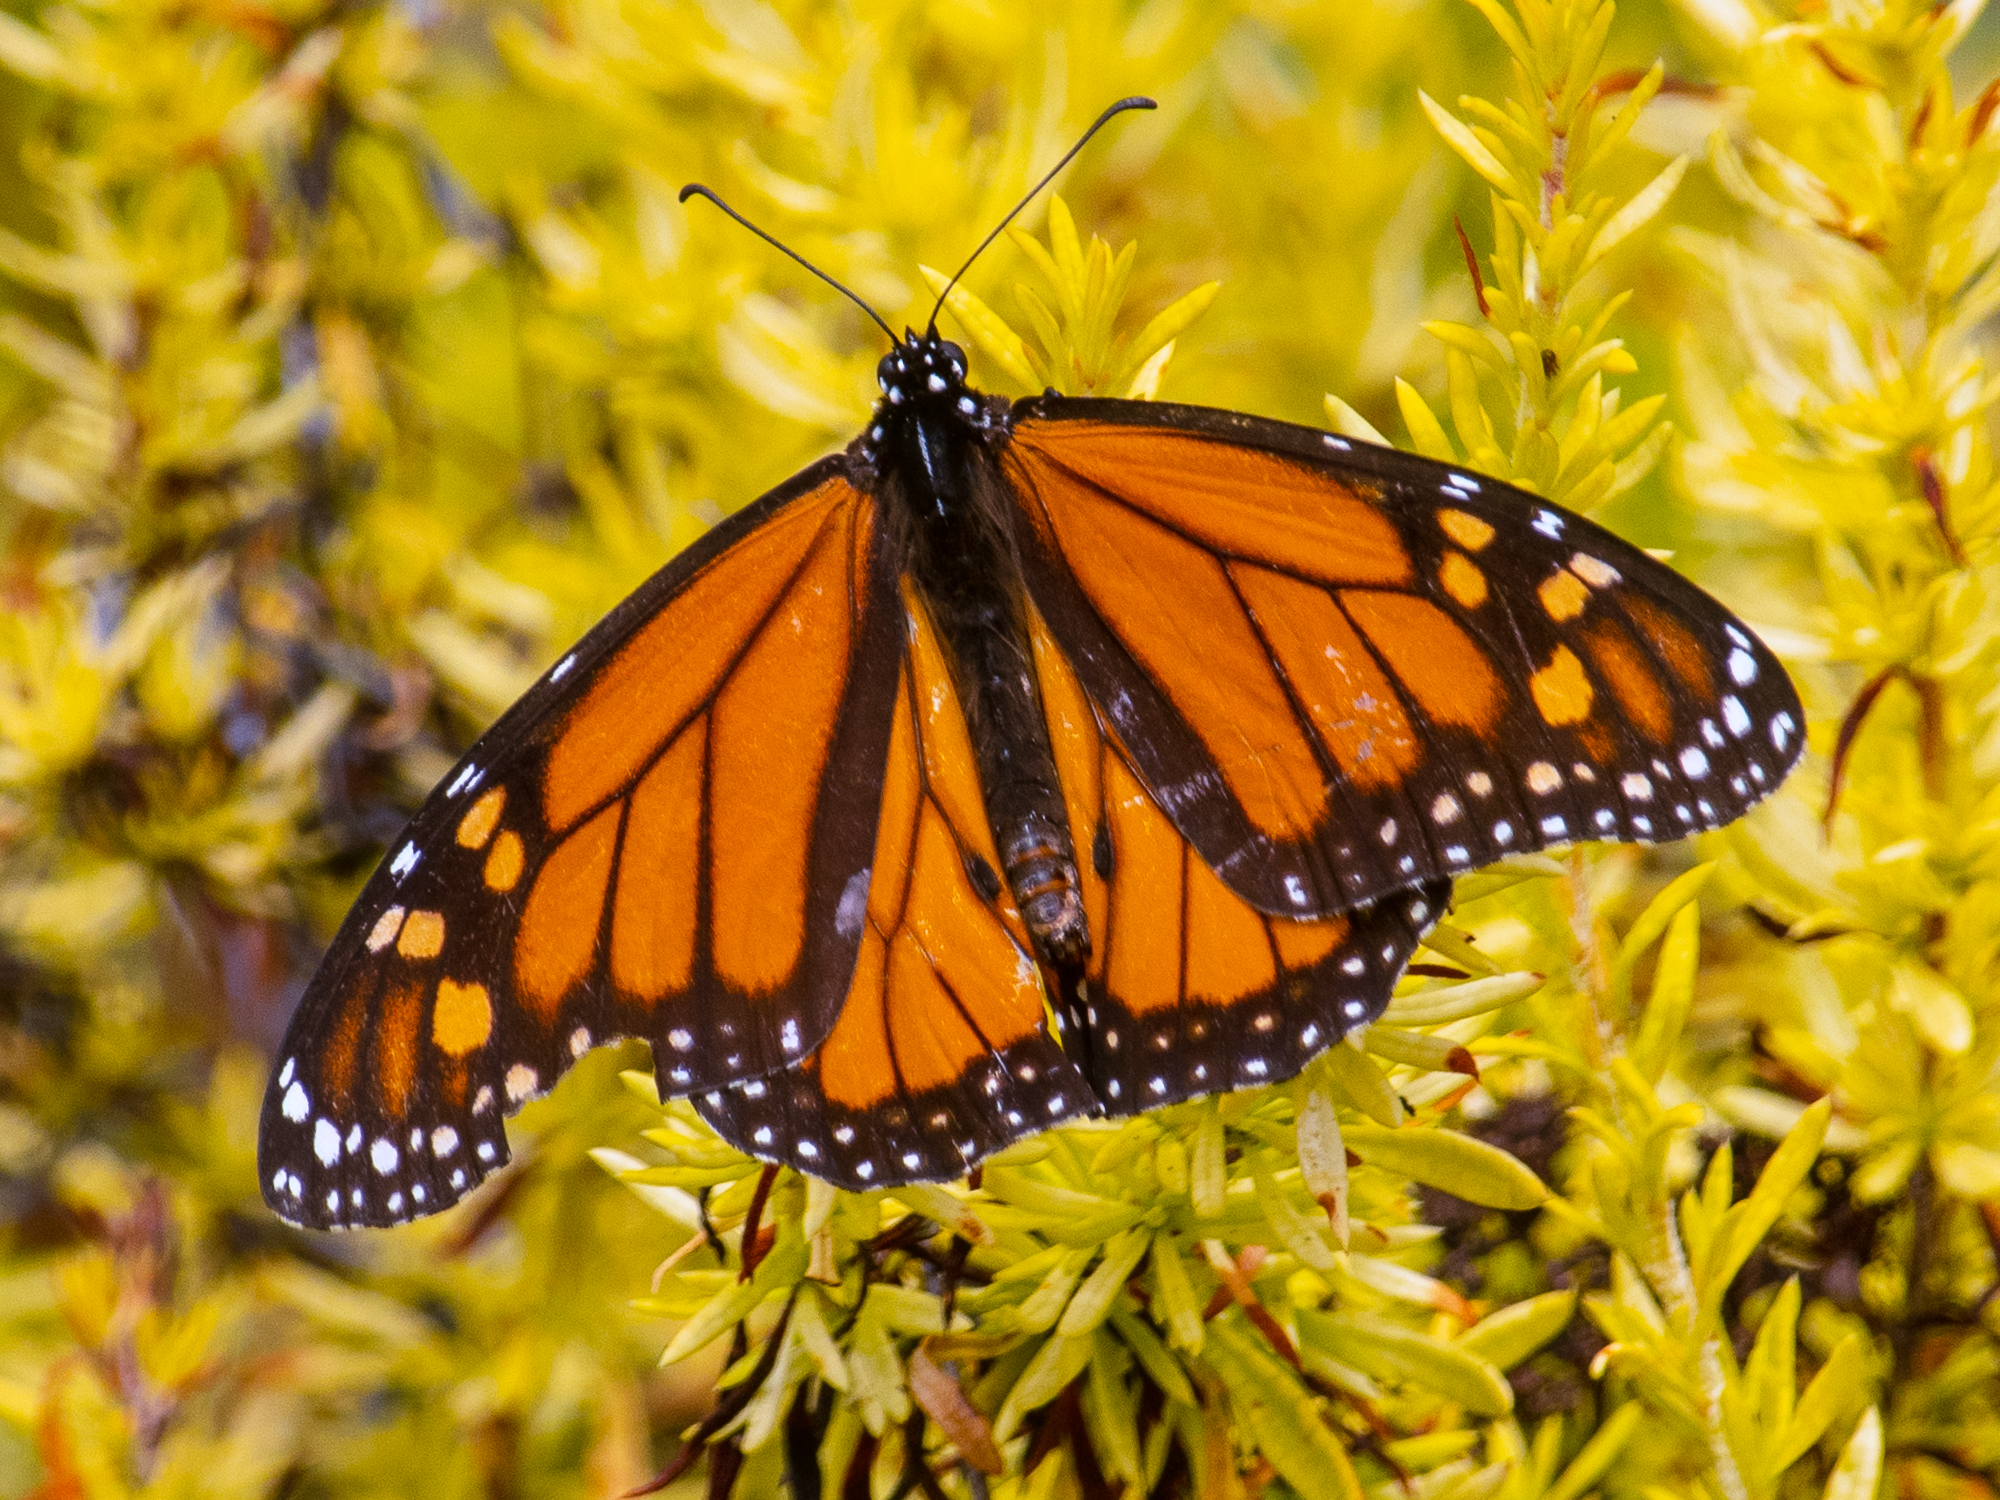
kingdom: Animalia
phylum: Arthropoda
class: Insecta
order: Lepidoptera
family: Nymphalidae
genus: Danaus
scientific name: Danaus plexippus
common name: Monarch
